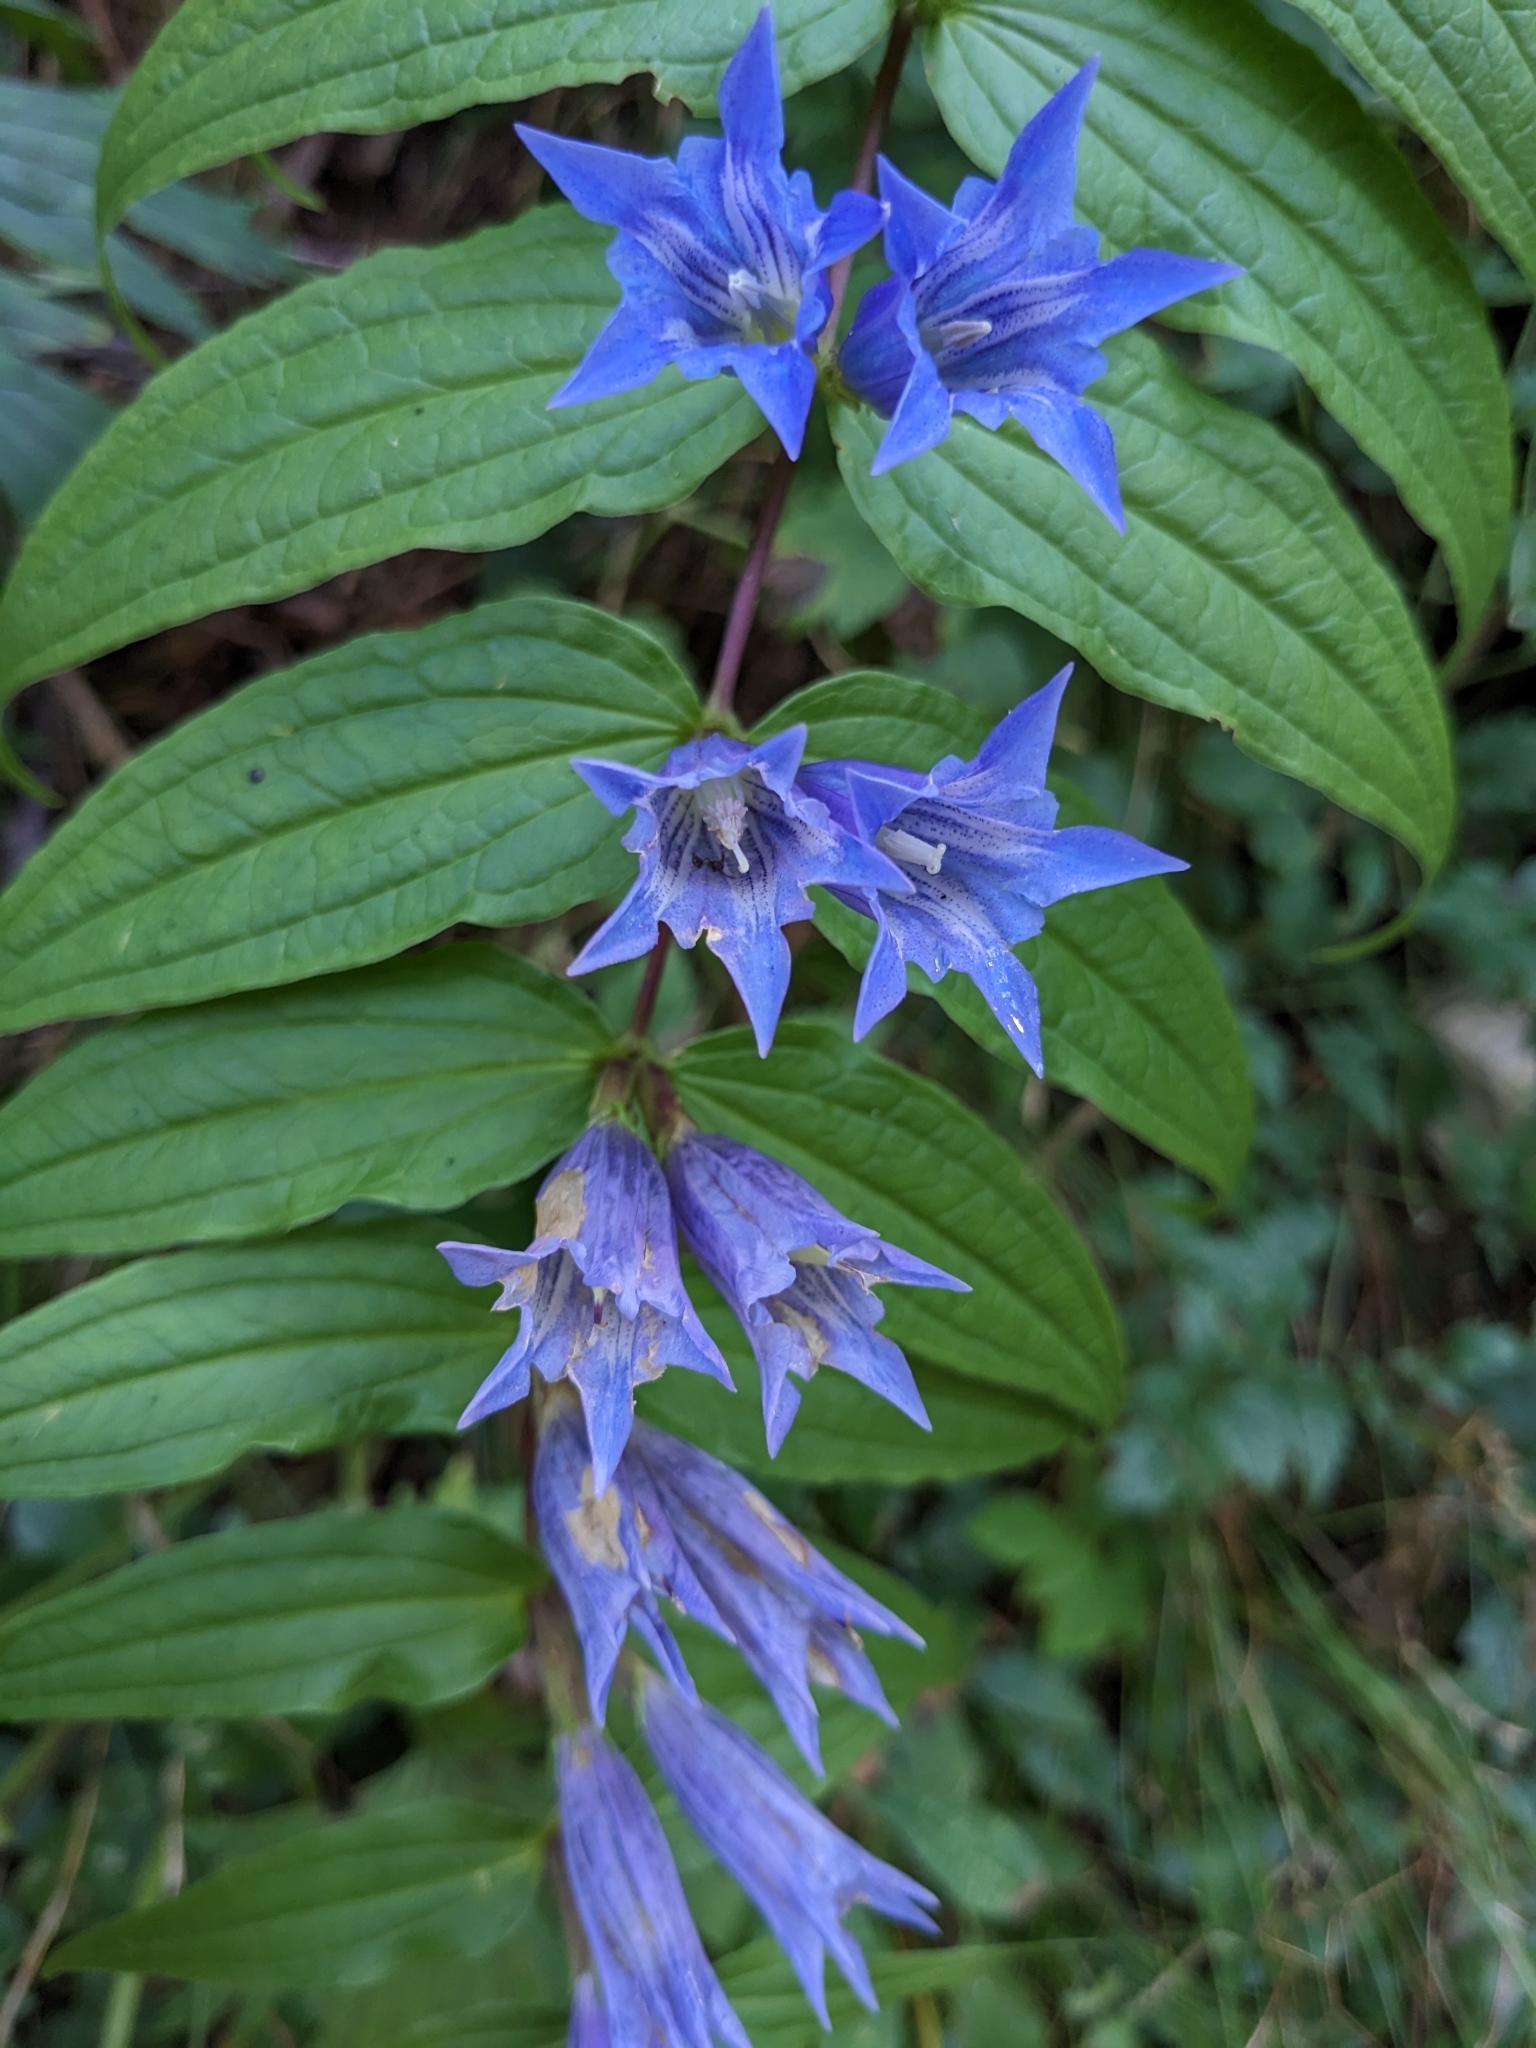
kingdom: Plantae
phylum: Tracheophyta
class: Magnoliopsida
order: Gentianales
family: Gentianaceae
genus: Gentiana
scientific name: Gentiana asclepiadea
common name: Willow gentian
